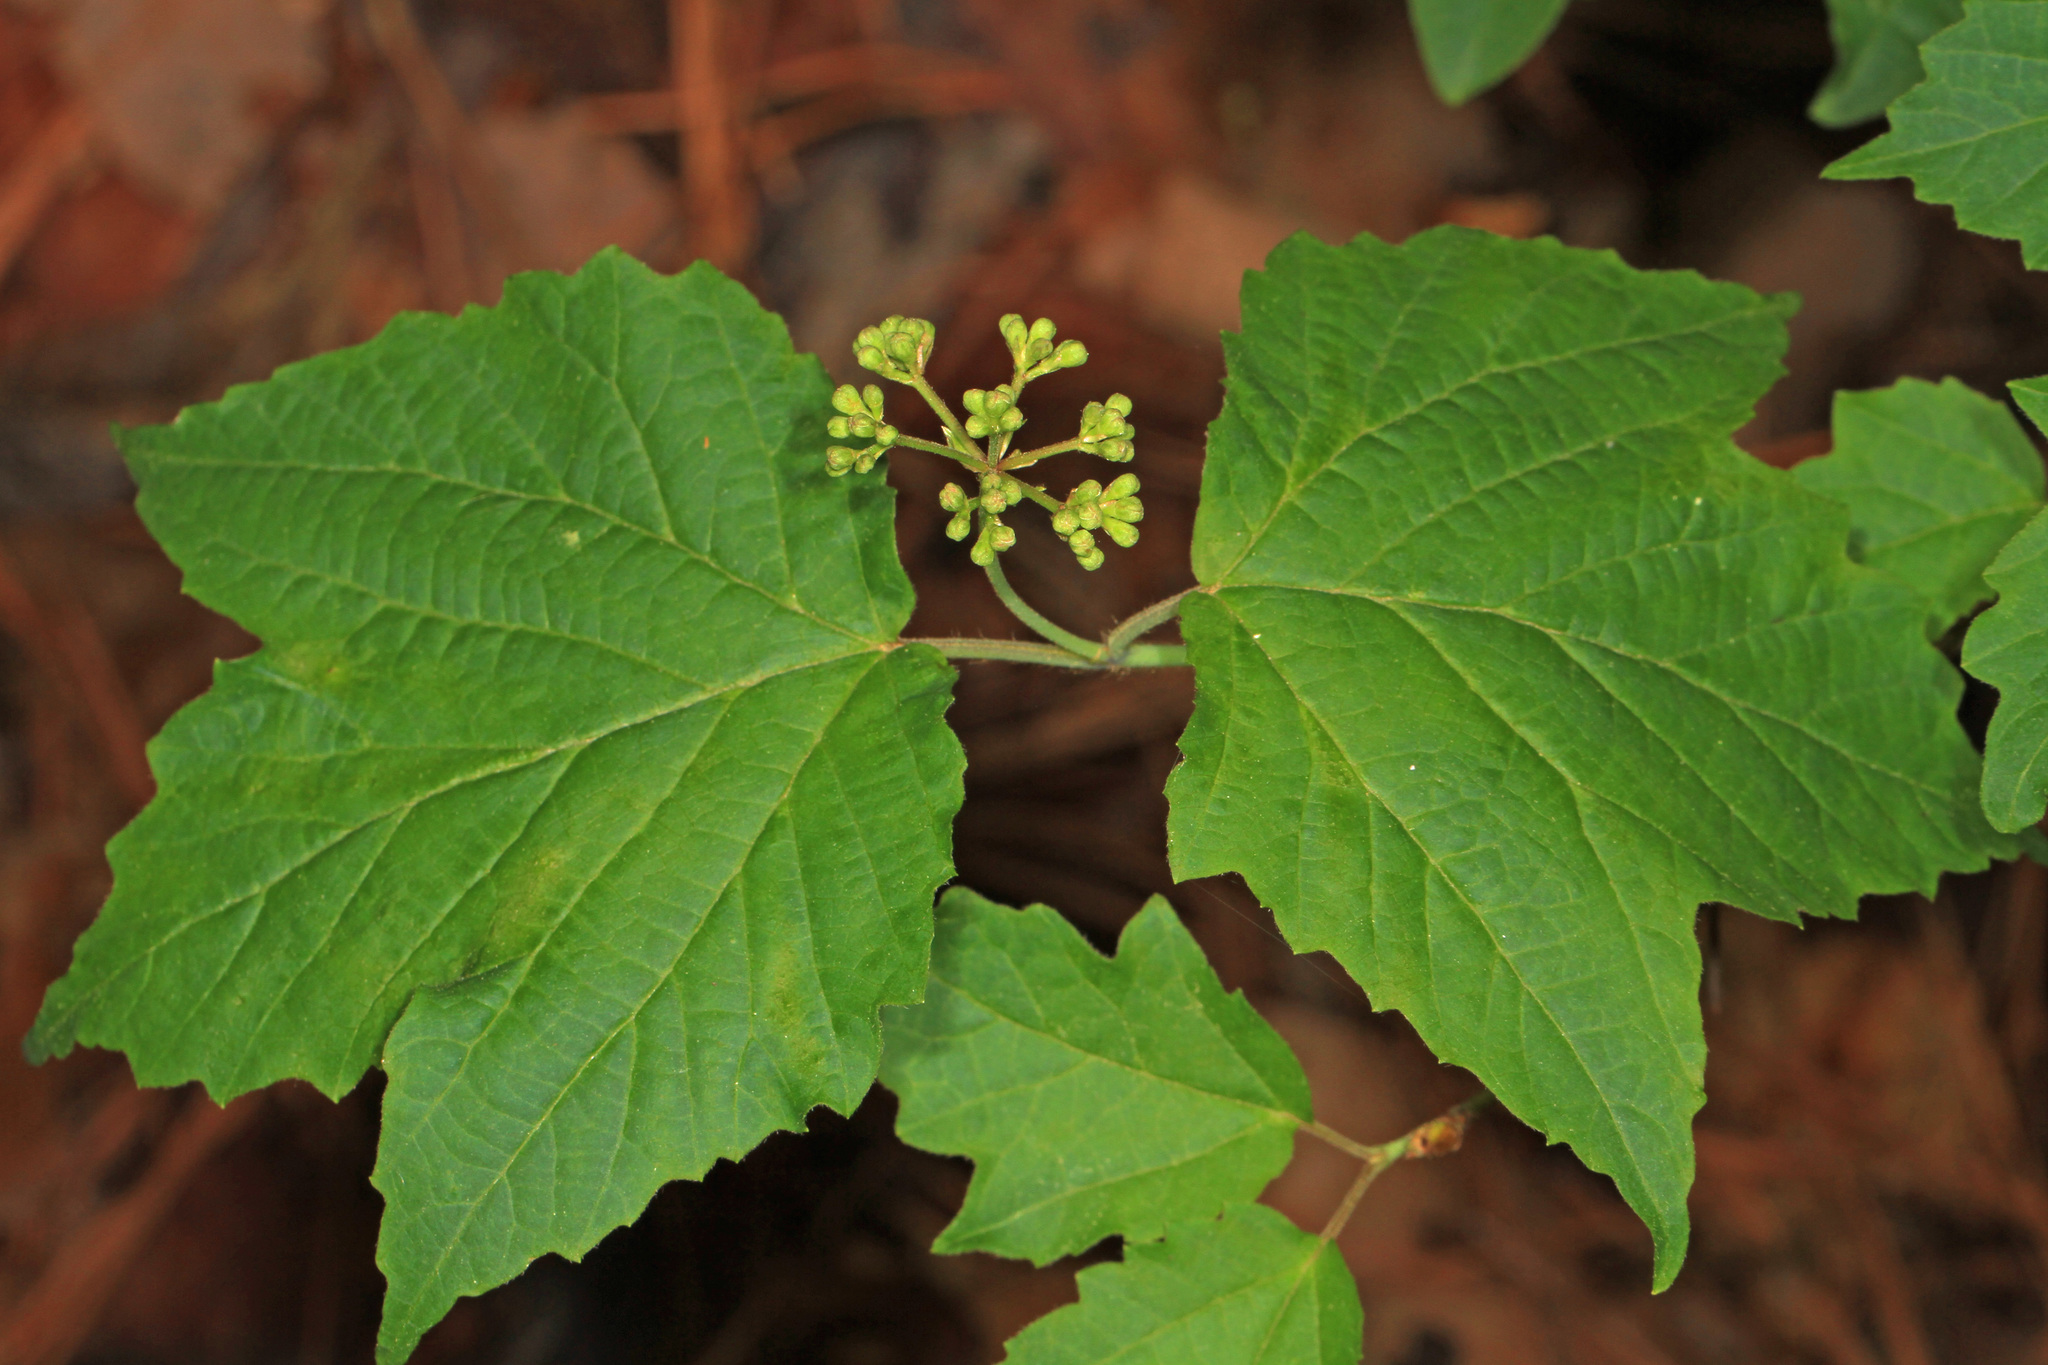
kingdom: Plantae
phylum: Tracheophyta
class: Magnoliopsida
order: Dipsacales
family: Viburnaceae
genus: Viburnum
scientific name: Viburnum acerifolium
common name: Dockmackie
